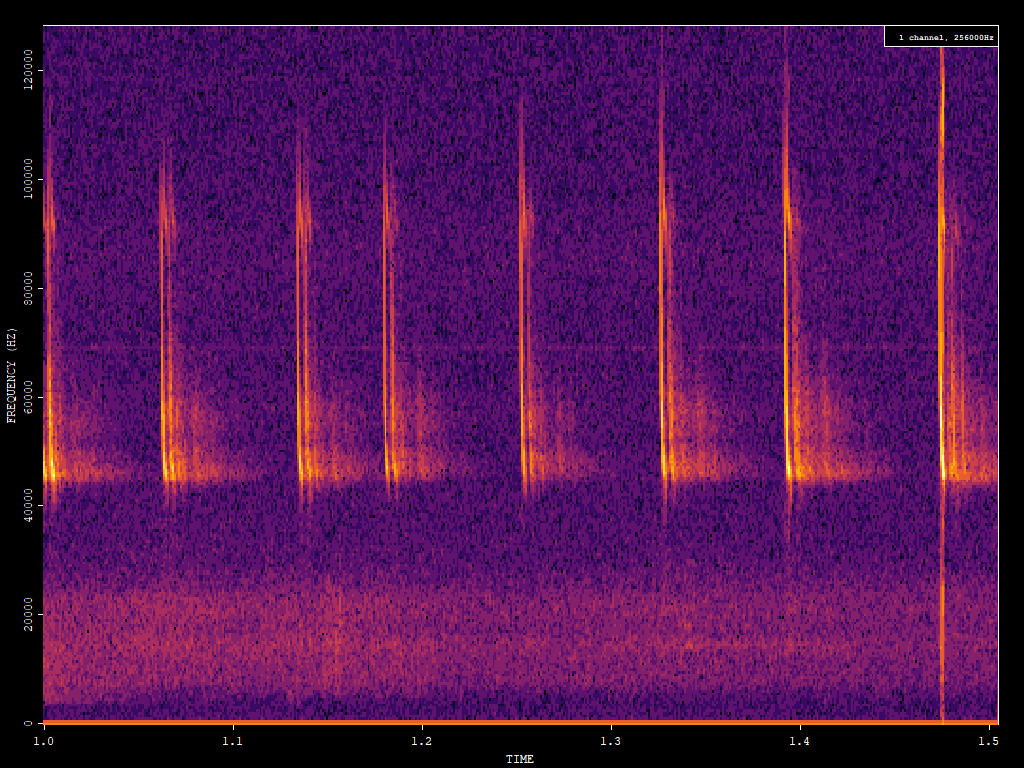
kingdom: Animalia
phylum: Chordata
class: Mammalia
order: Chiroptera
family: Vespertilionidae
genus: Pipistrellus
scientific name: Pipistrellus pipistrellus
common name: Common pipistrelle
